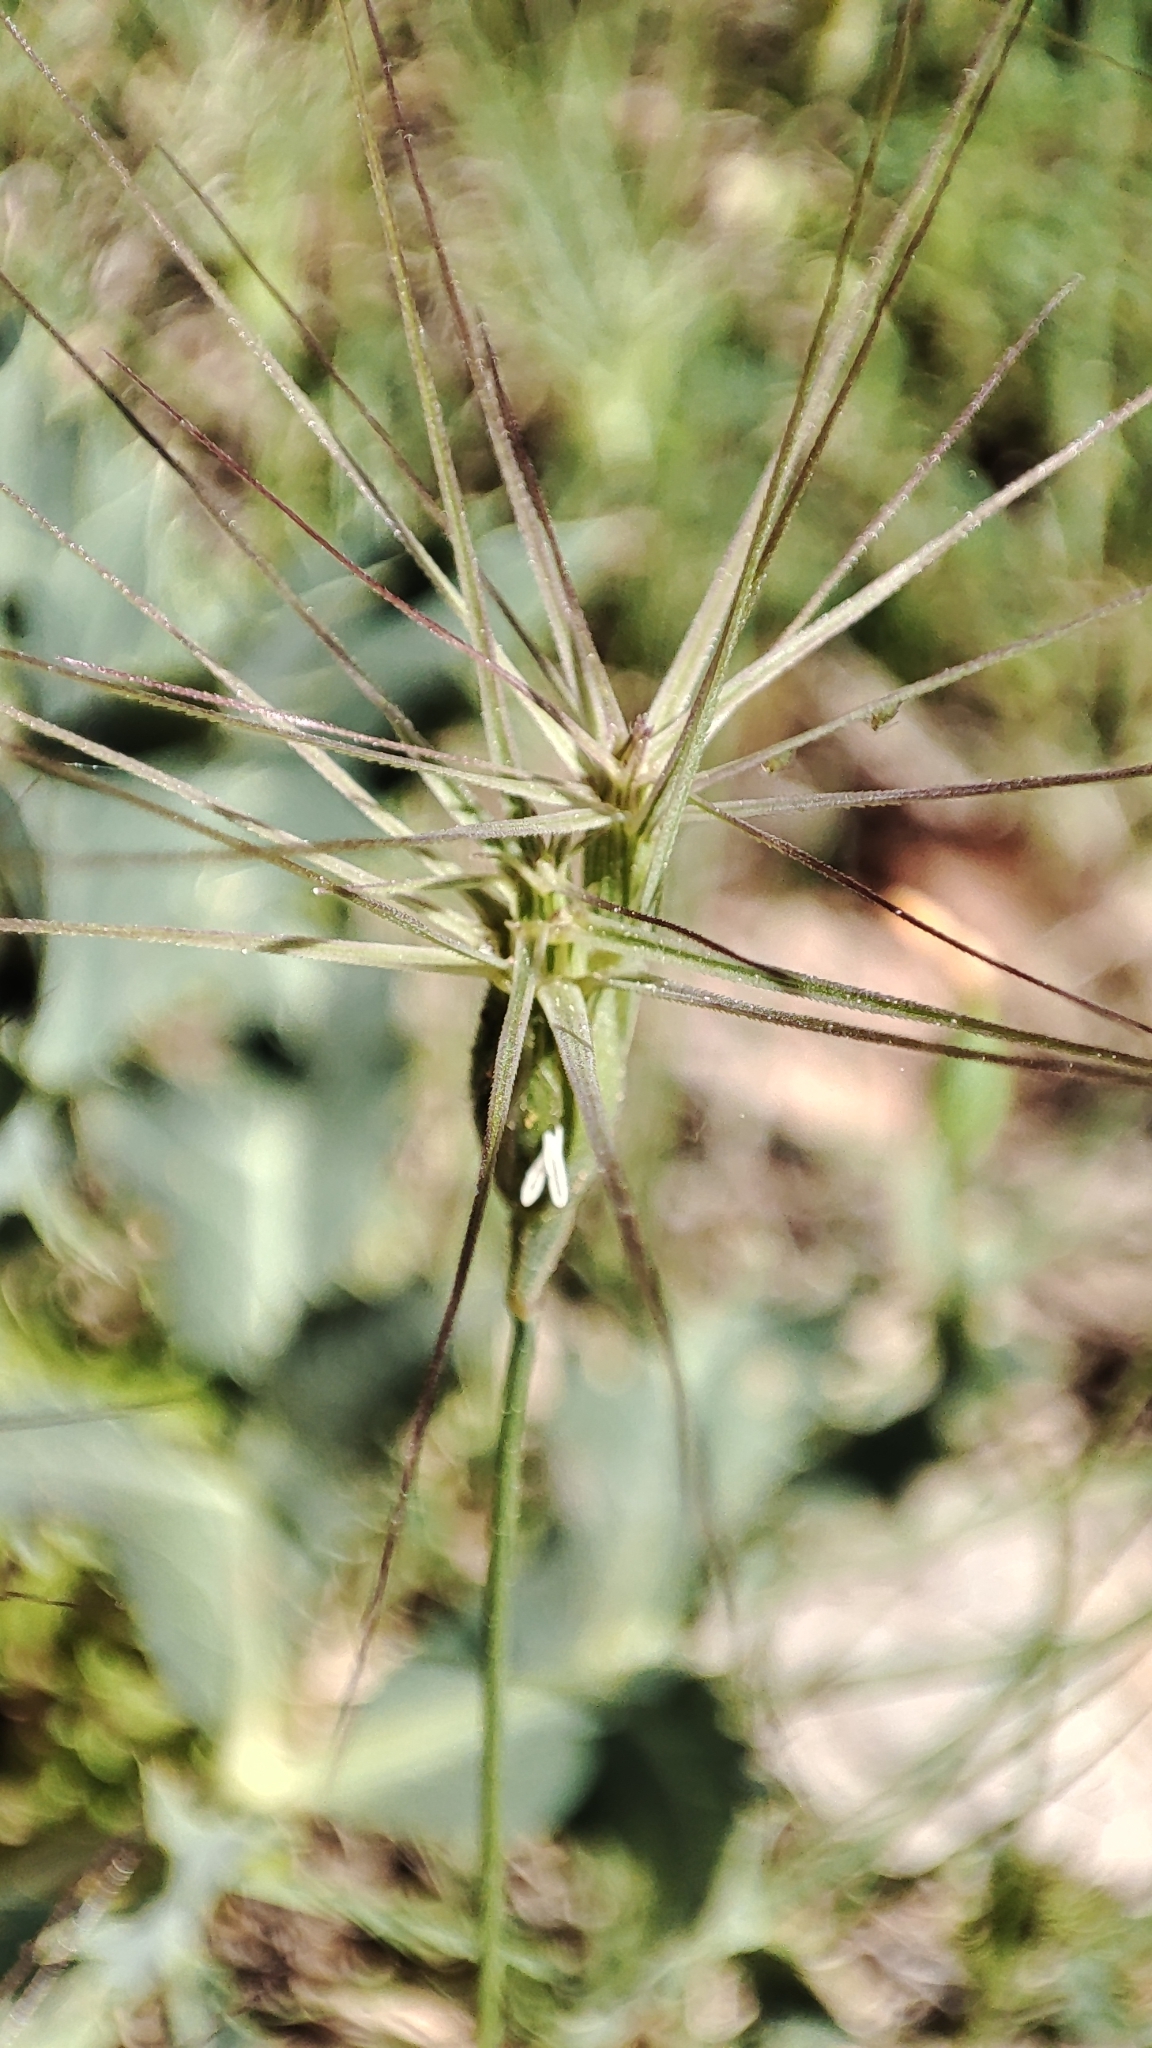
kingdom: Plantae
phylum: Tracheophyta
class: Liliopsida
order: Poales
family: Poaceae
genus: Aegilops
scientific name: Aegilops geniculata
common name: Ovate goat grass
